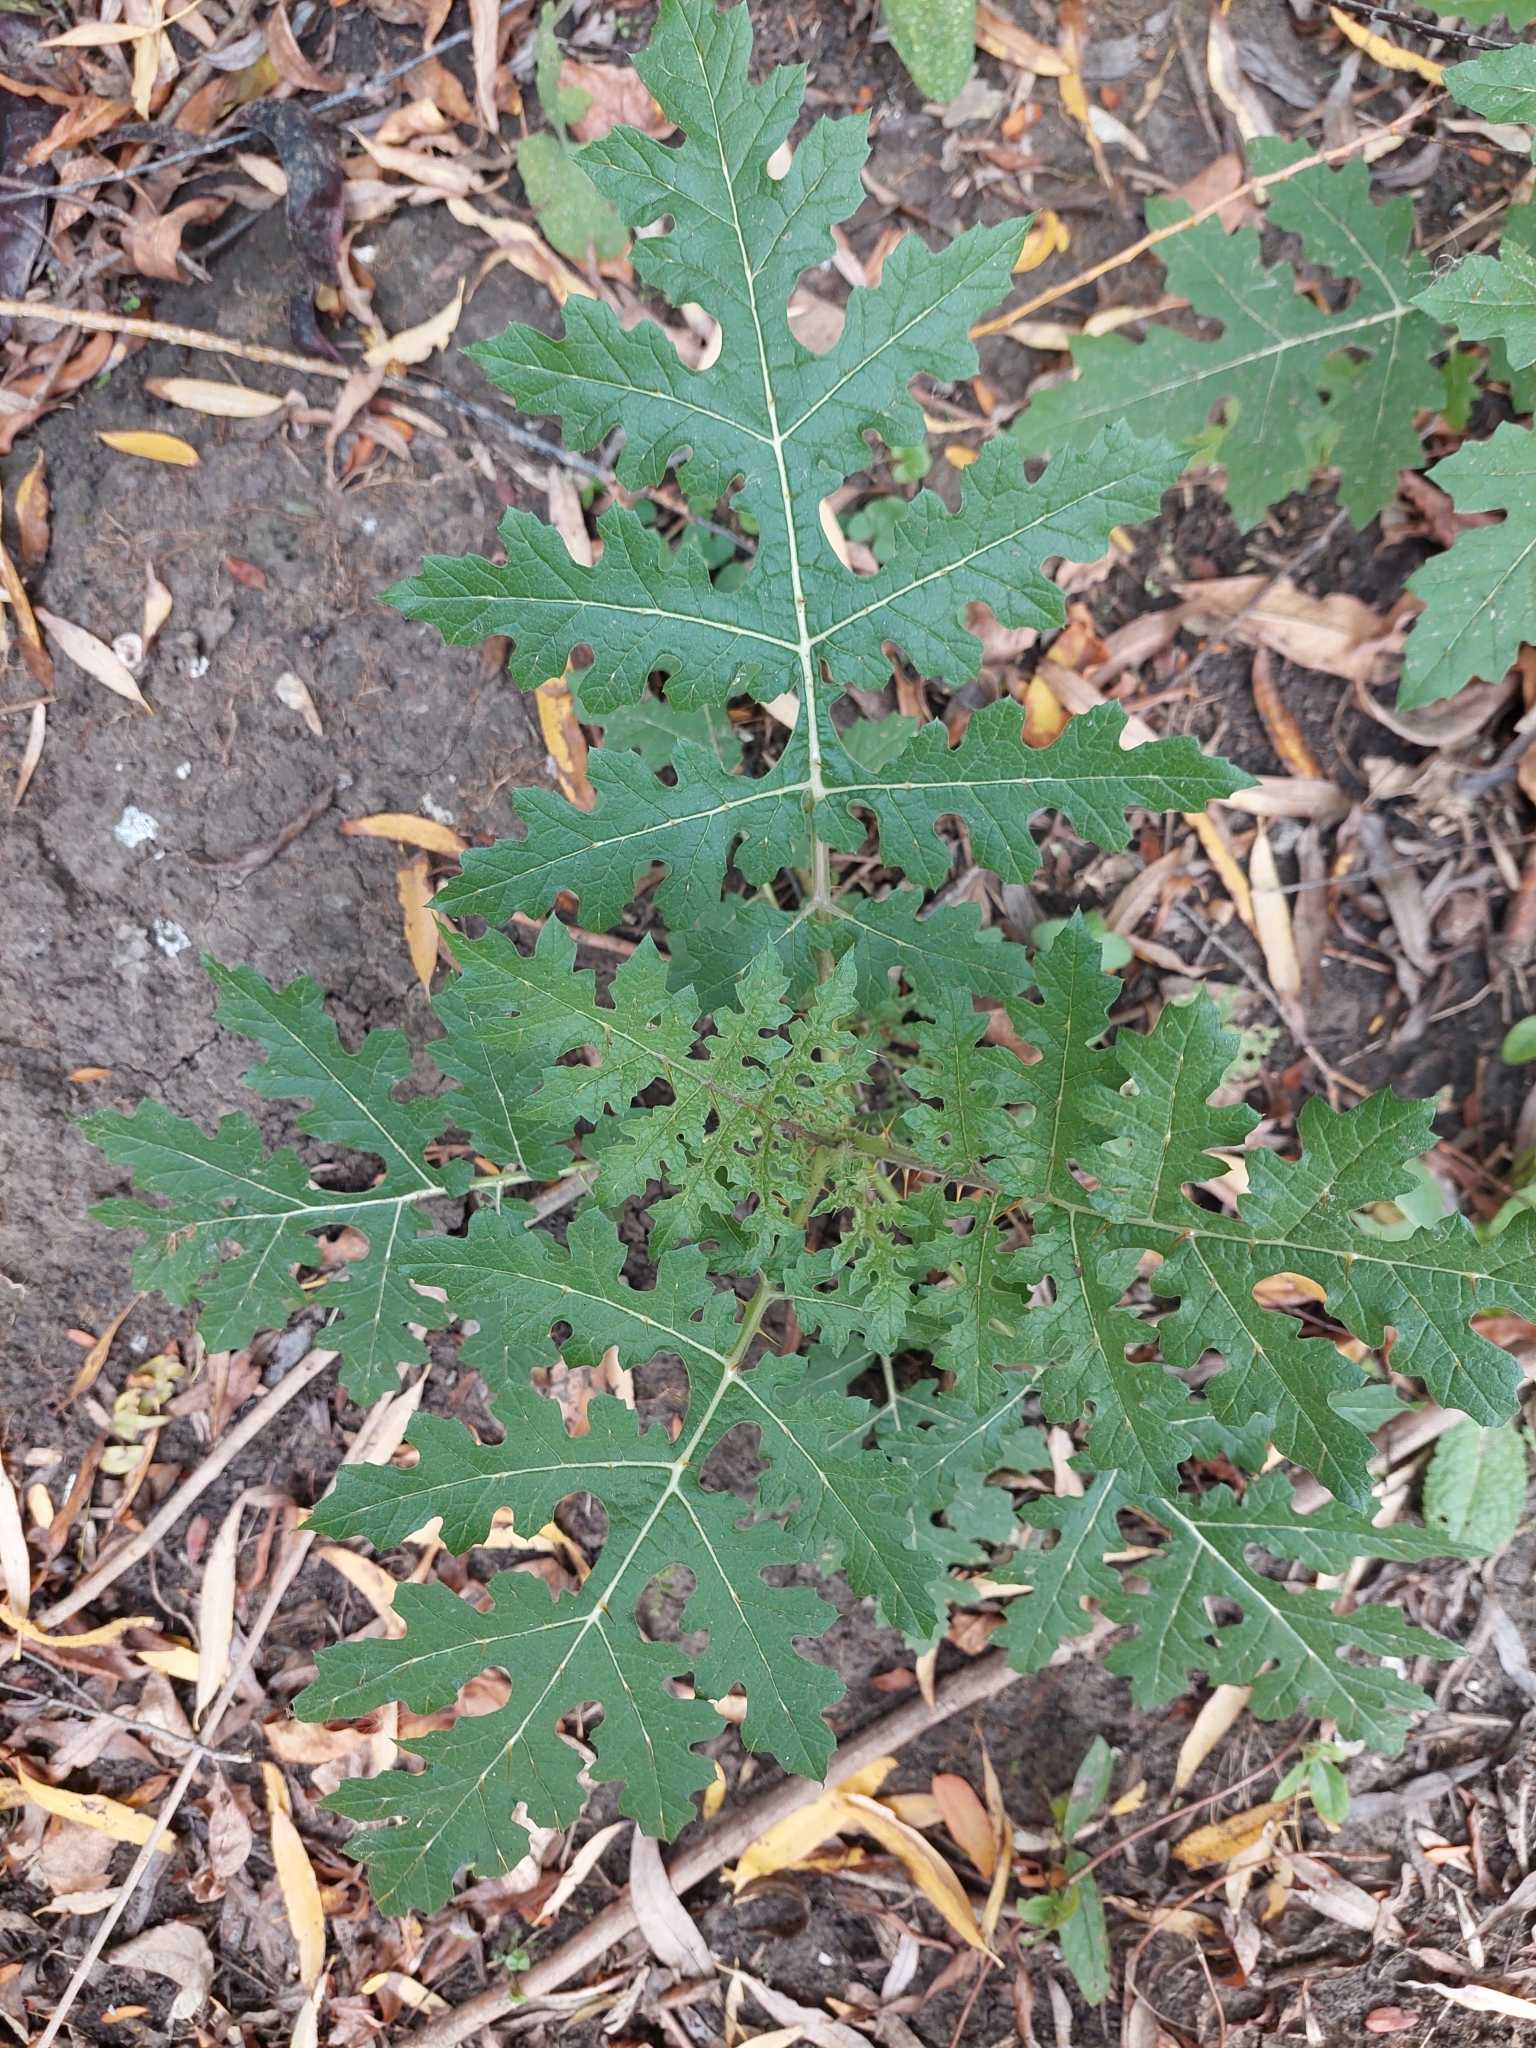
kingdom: Plantae
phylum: Tracheophyta
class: Magnoliopsida
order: Solanales
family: Solanaceae
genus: Solanum
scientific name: Solanum sisymbriifolium
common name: Red buffalo-bur
